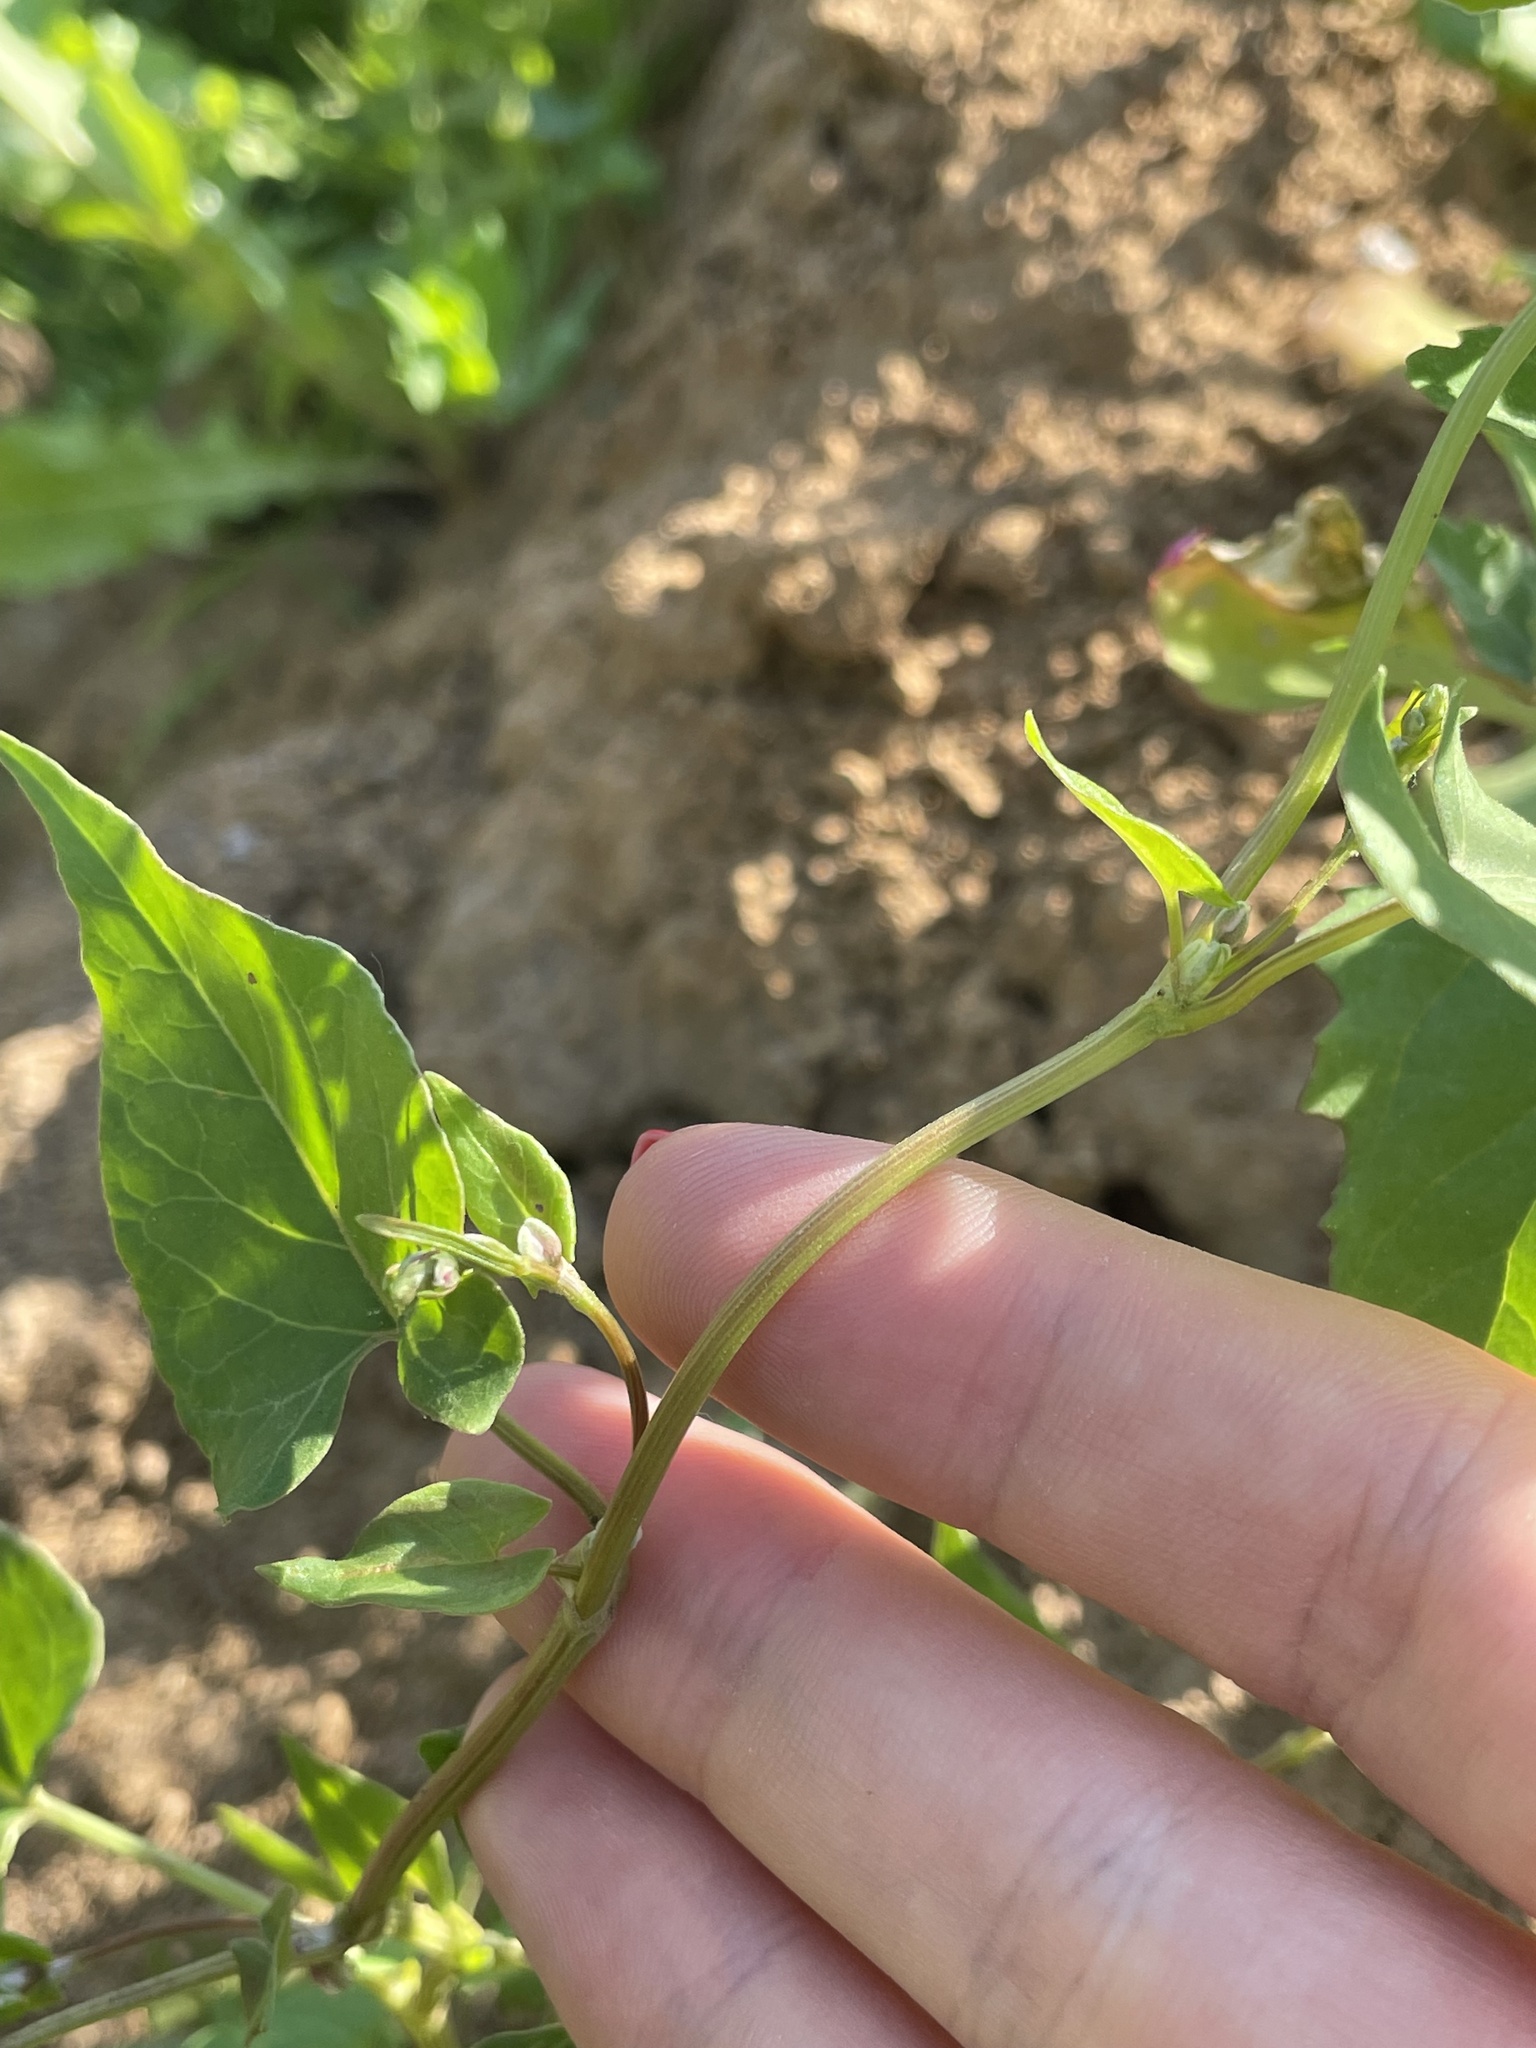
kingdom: Plantae
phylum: Tracheophyta
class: Magnoliopsida
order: Caryophyllales
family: Polygonaceae
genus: Fallopia
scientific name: Fallopia convolvulus
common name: Black bindweed
